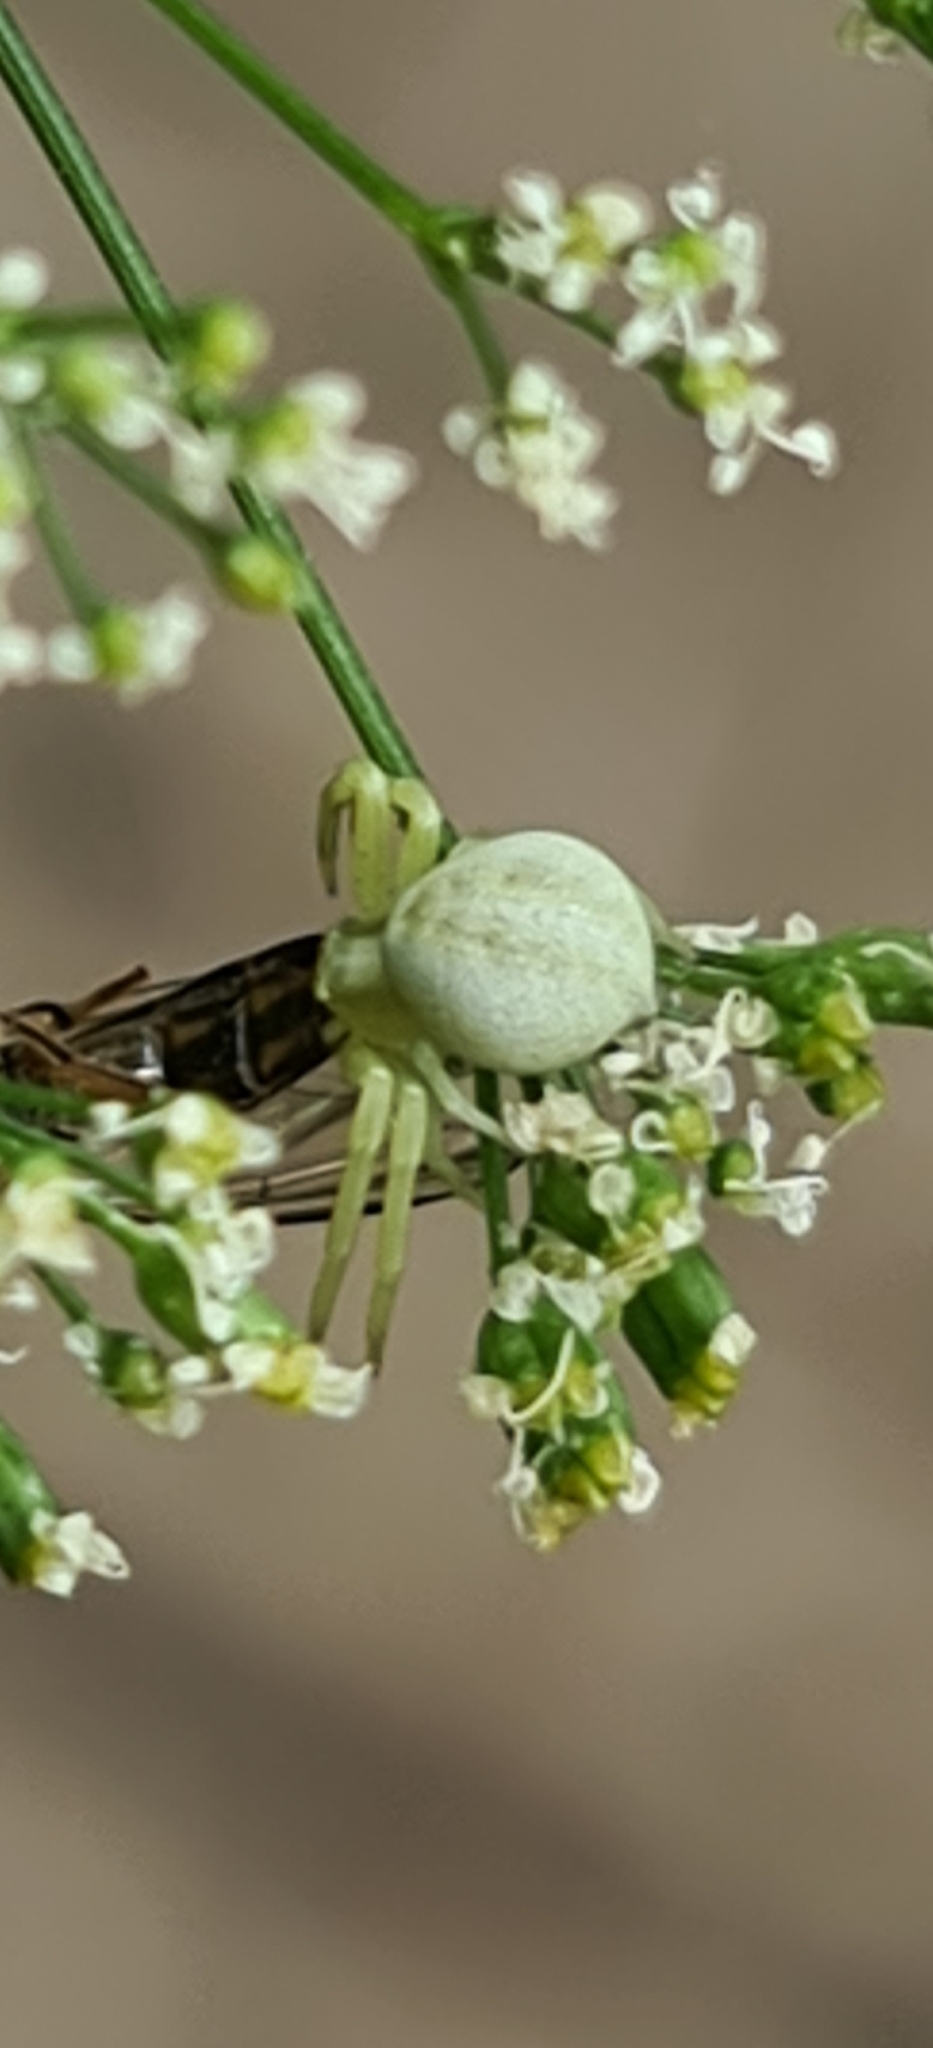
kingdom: Animalia
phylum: Arthropoda
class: Arachnida
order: Araneae
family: Thomisidae
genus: Misumena
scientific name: Misumena vatia
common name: Goldenrod crab spider
